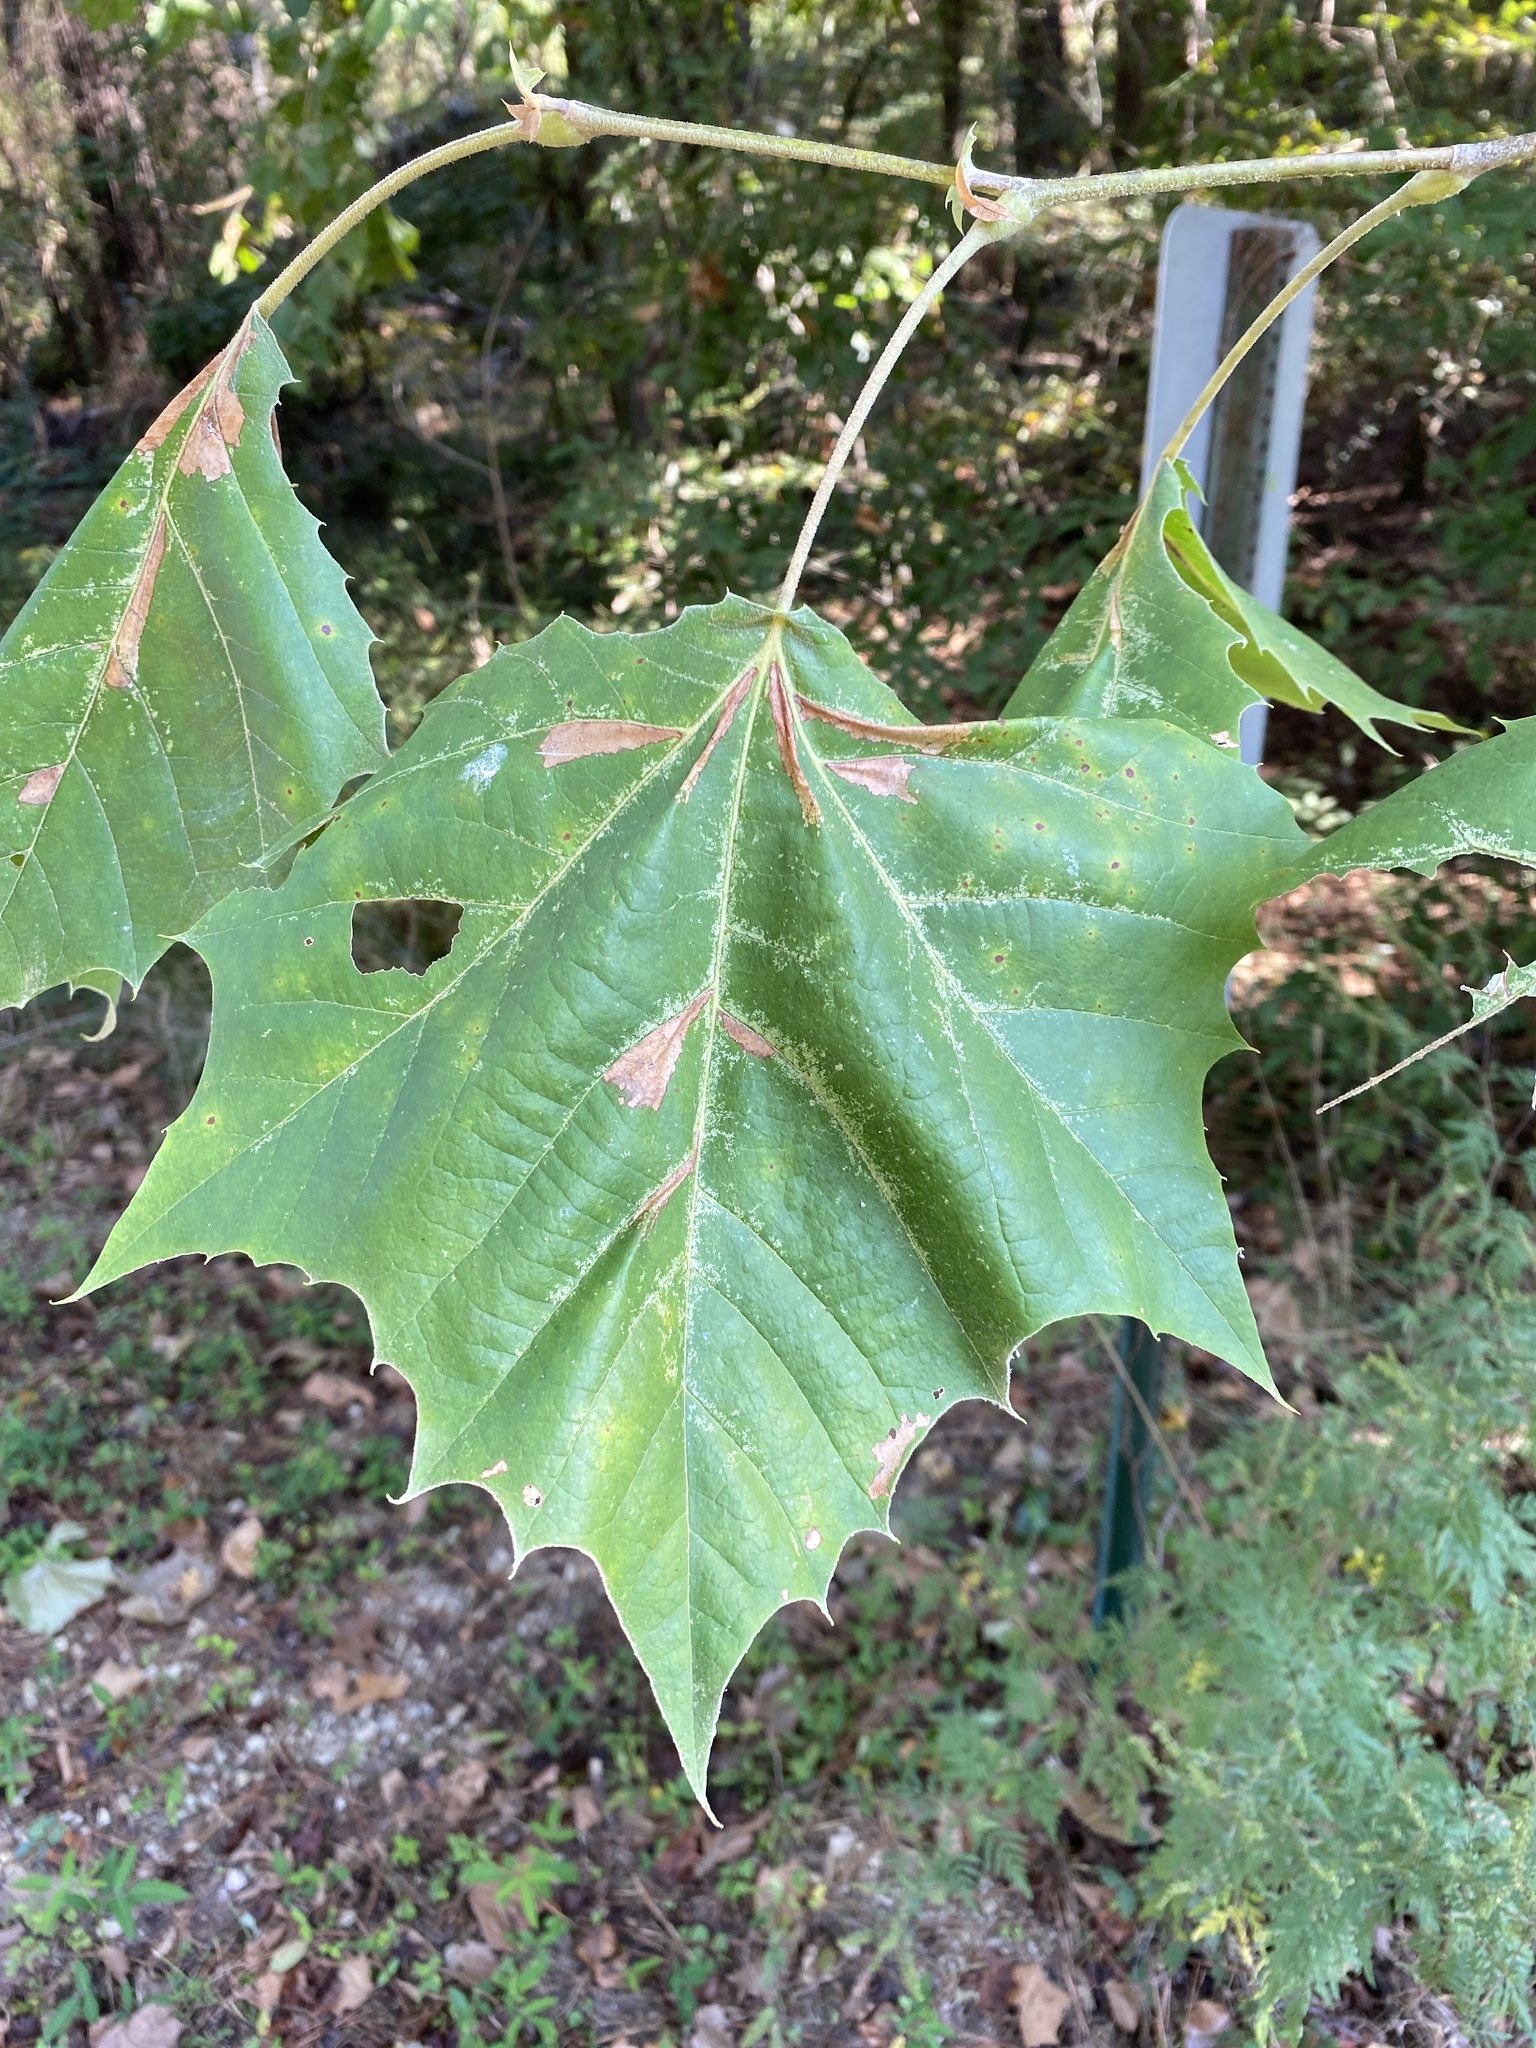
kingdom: Plantae
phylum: Tracheophyta
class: Magnoliopsida
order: Proteales
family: Platanaceae
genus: Platanus
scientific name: Platanus occidentalis
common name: American sycamore
